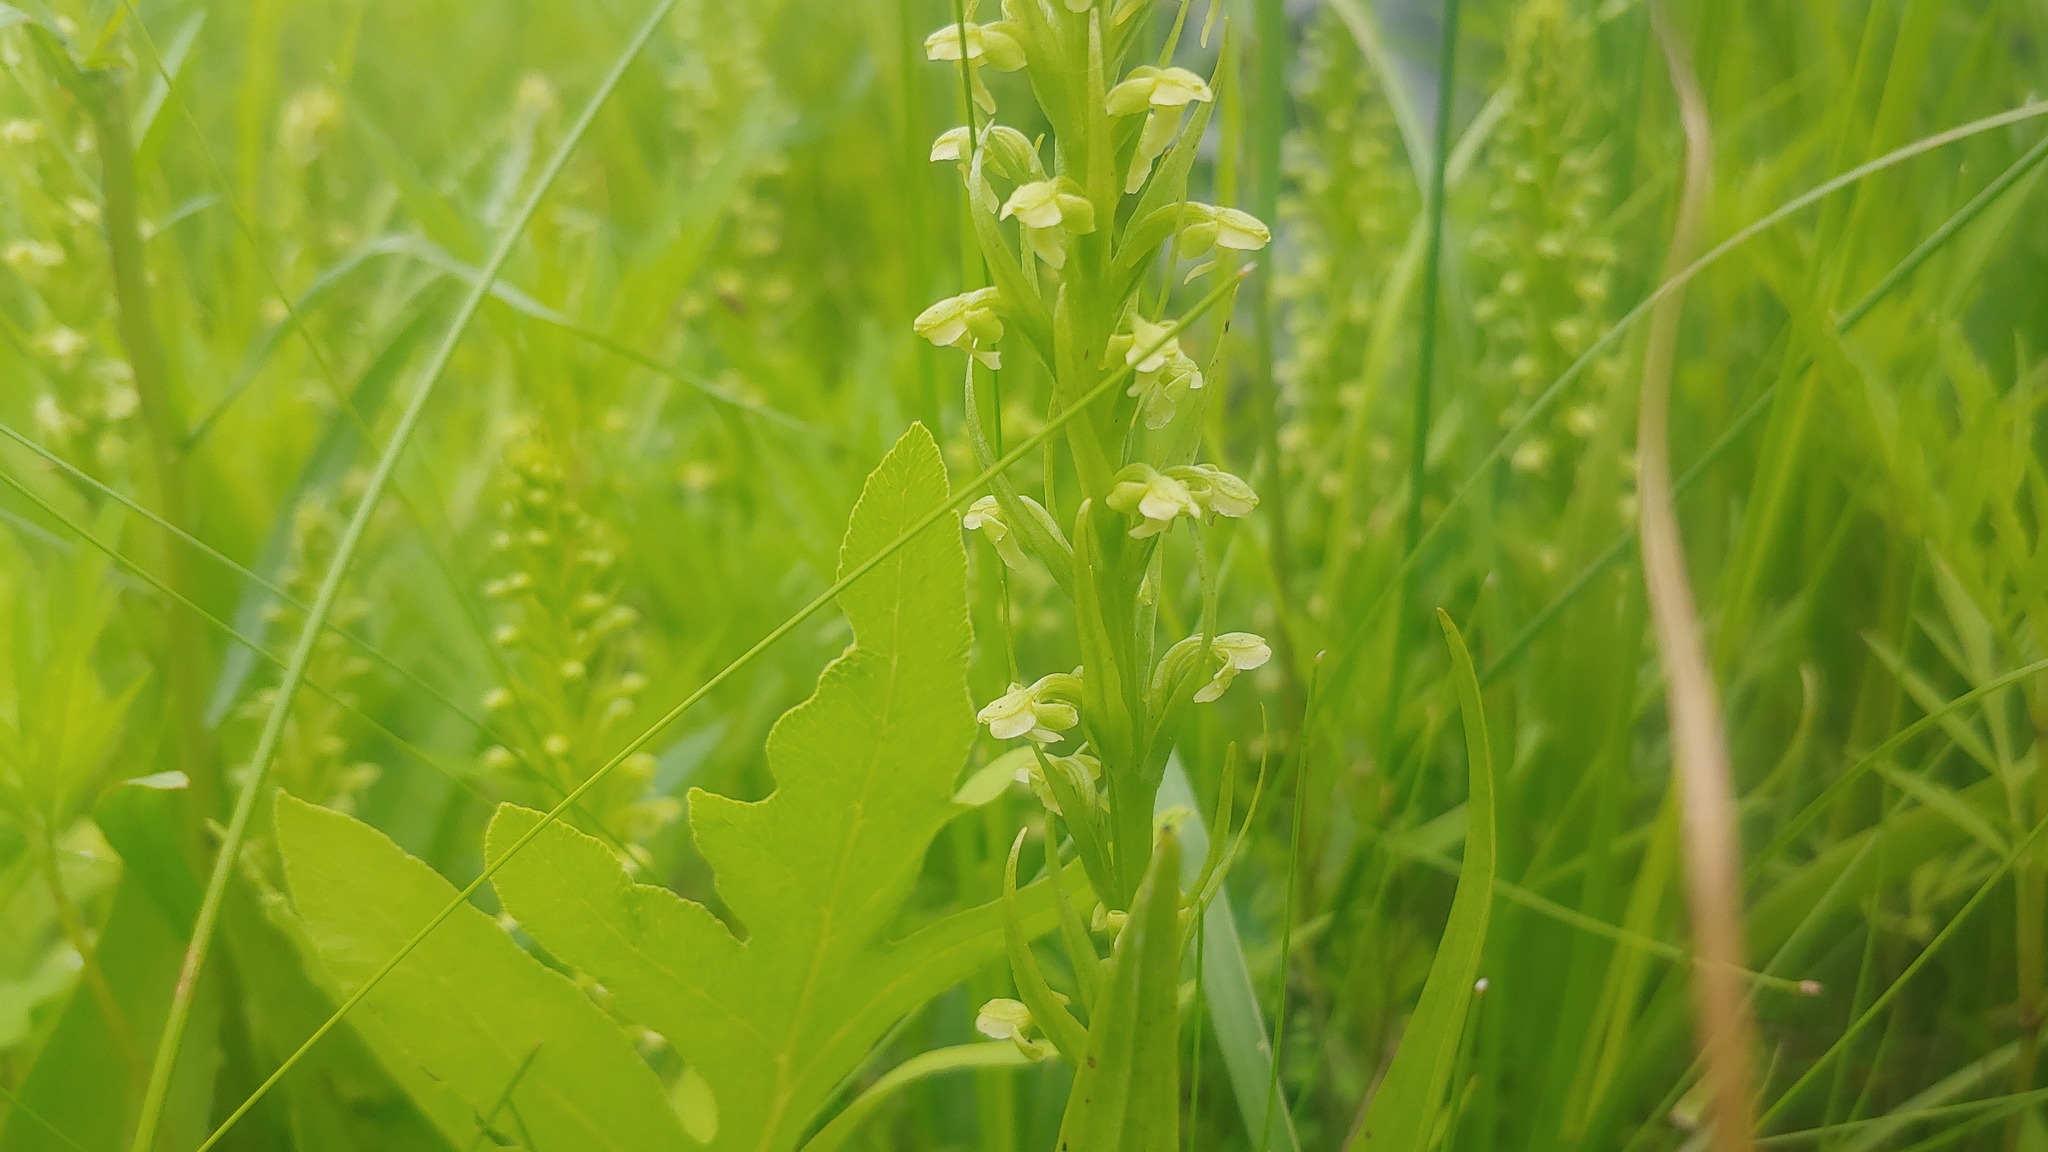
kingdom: Plantae
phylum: Tracheophyta
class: Liliopsida
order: Asparagales
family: Orchidaceae
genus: Platanthera
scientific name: Platanthera flava
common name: Gypsy-spikes
